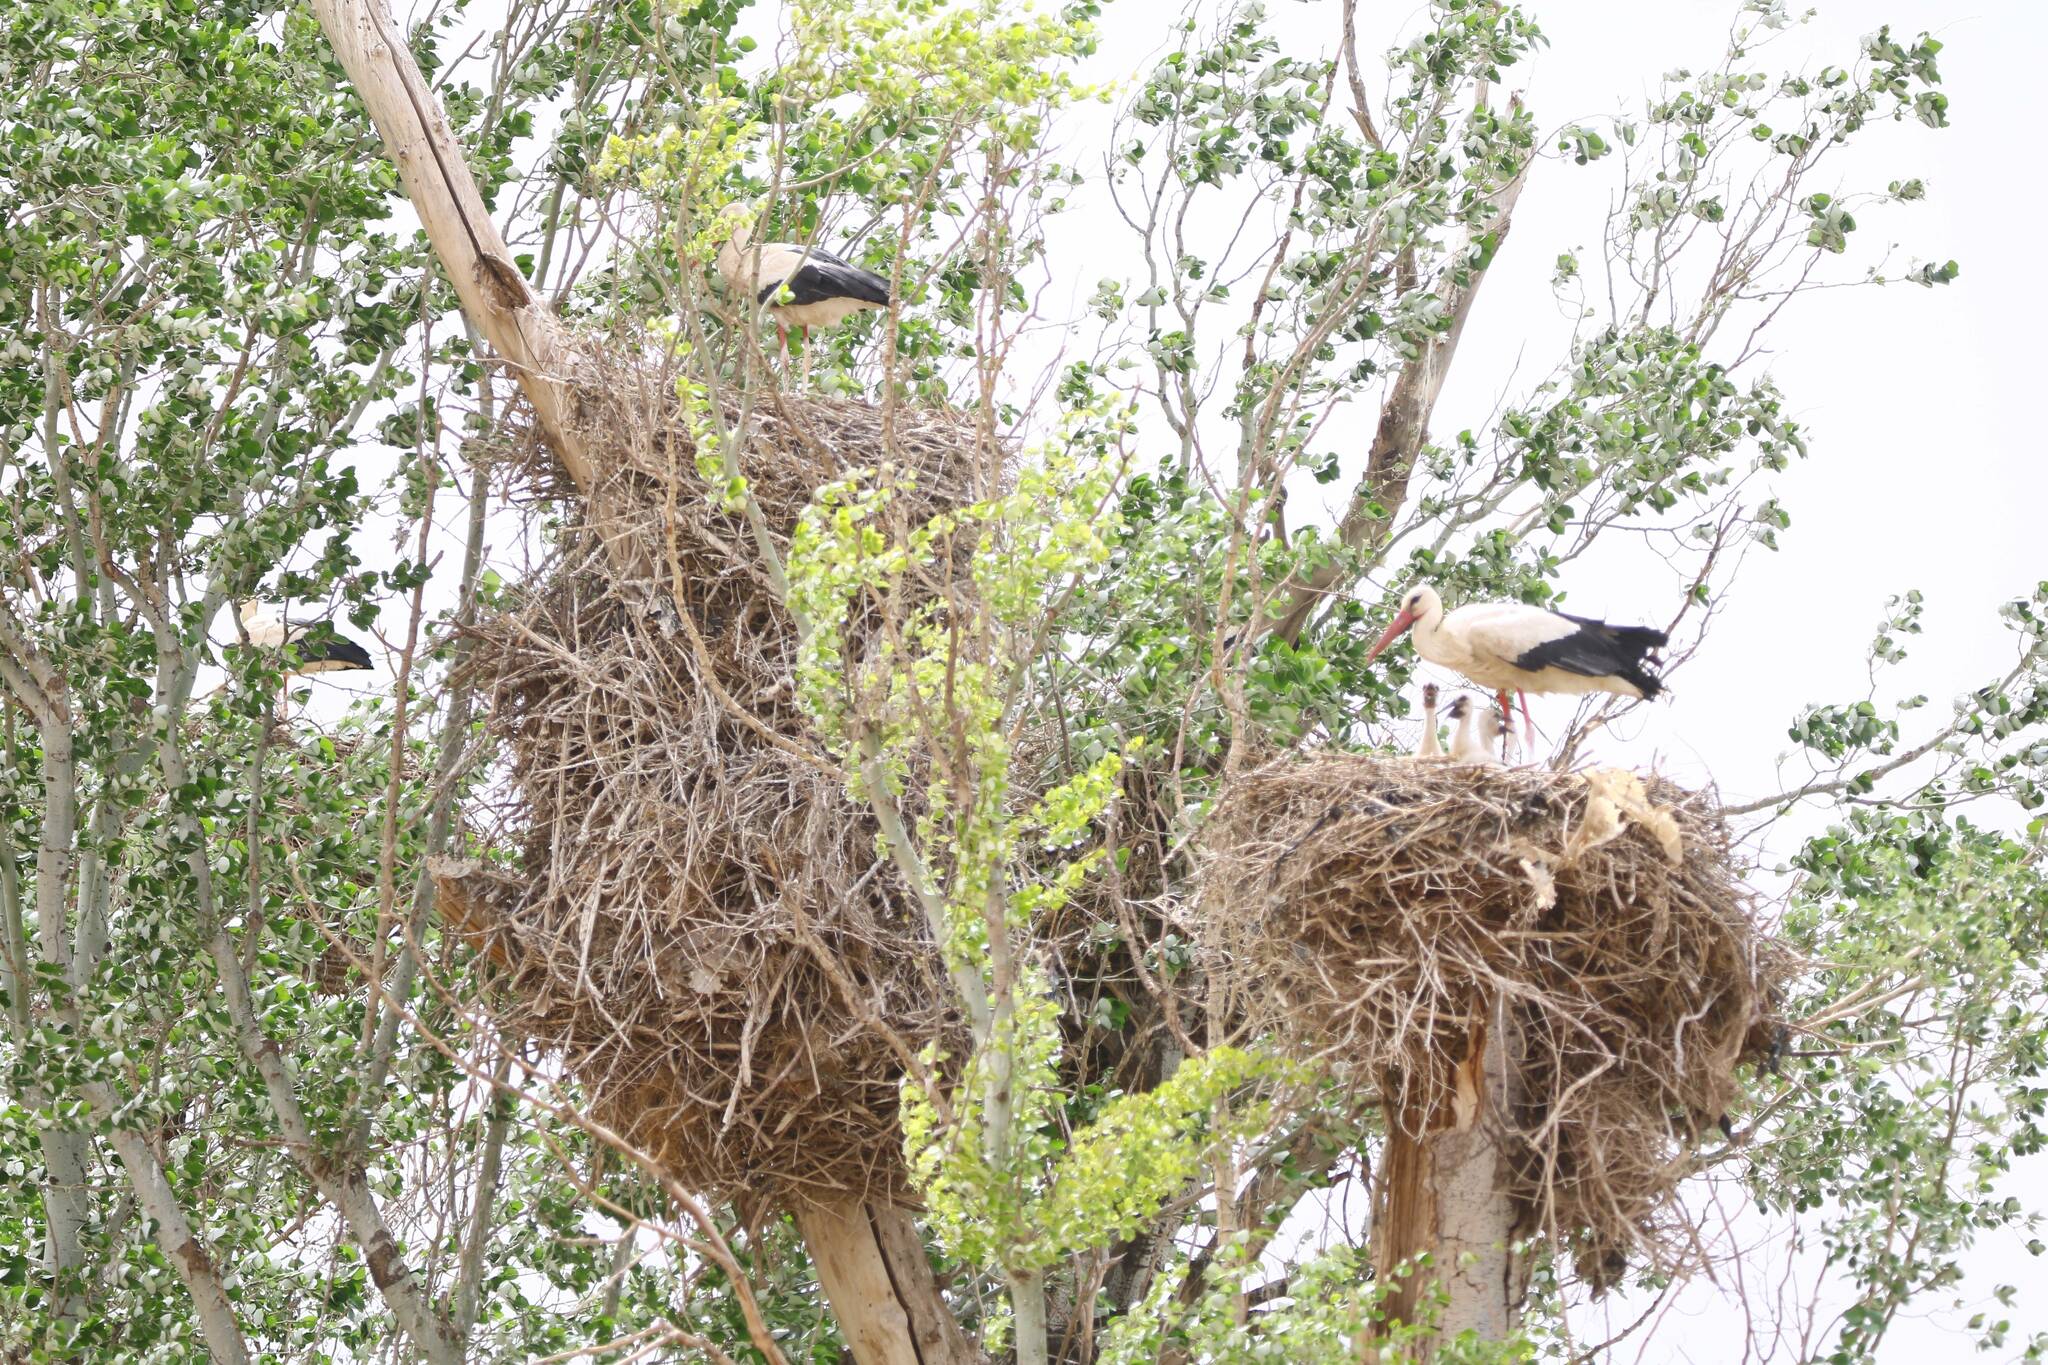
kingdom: Animalia
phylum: Chordata
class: Aves
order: Ciconiiformes
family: Ciconiidae
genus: Ciconia
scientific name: Ciconia ciconia
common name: White stork
